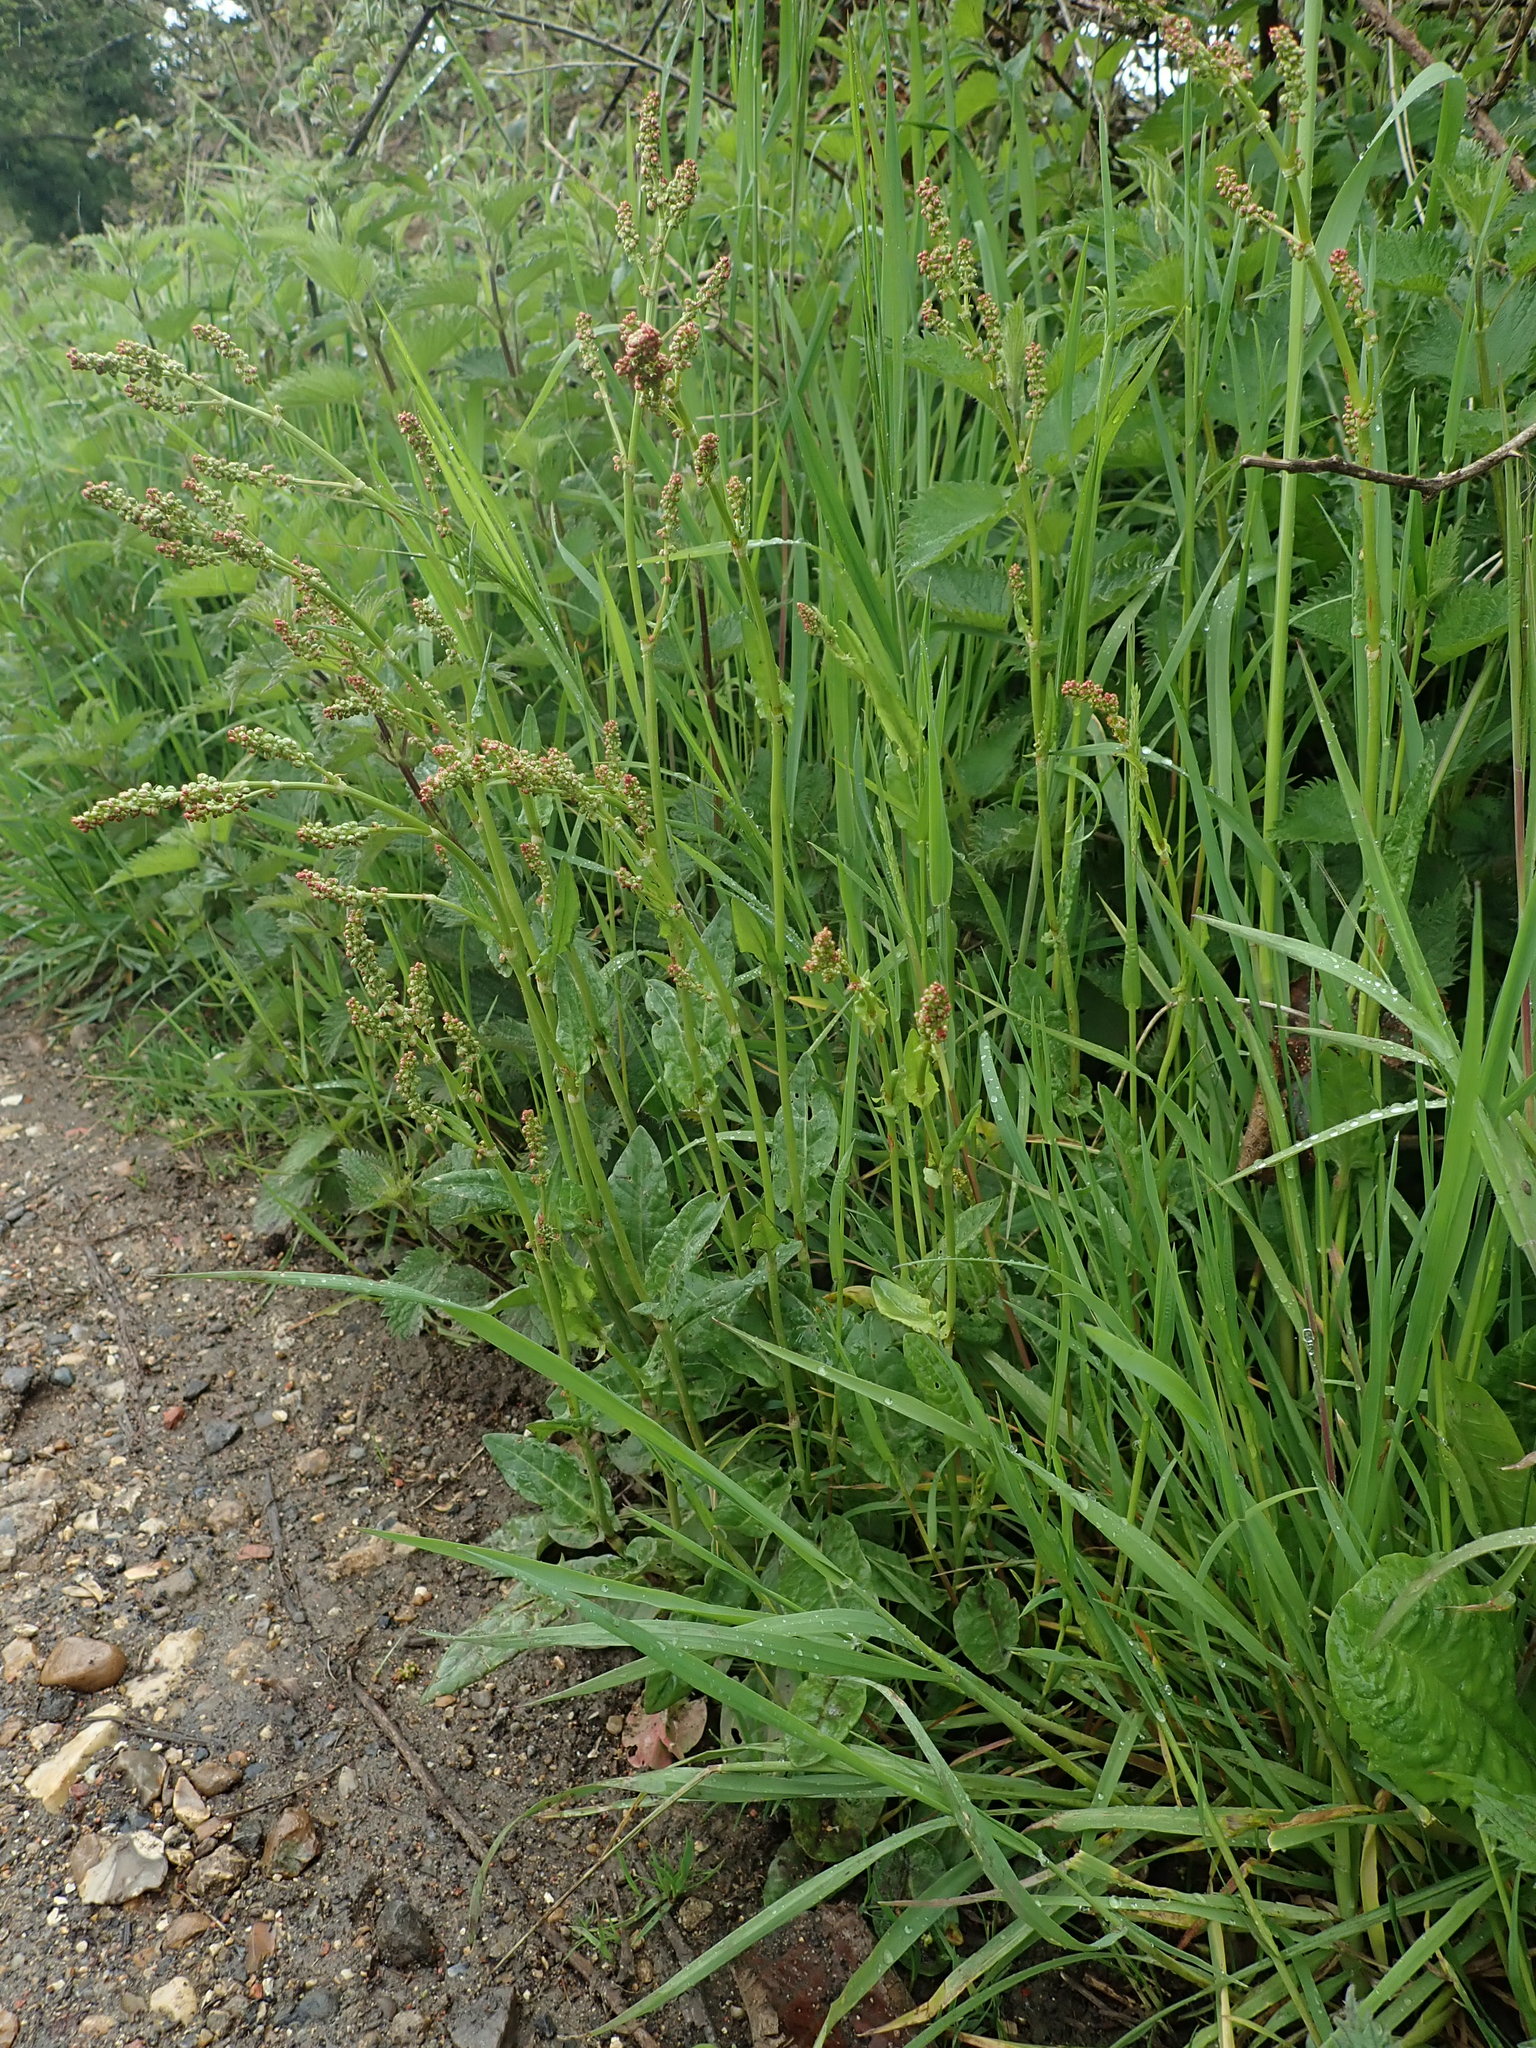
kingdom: Plantae
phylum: Tracheophyta
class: Magnoliopsida
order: Caryophyllales
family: Polygonaceae
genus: Rumex
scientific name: Rumex acetosa
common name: Garden sorrel
